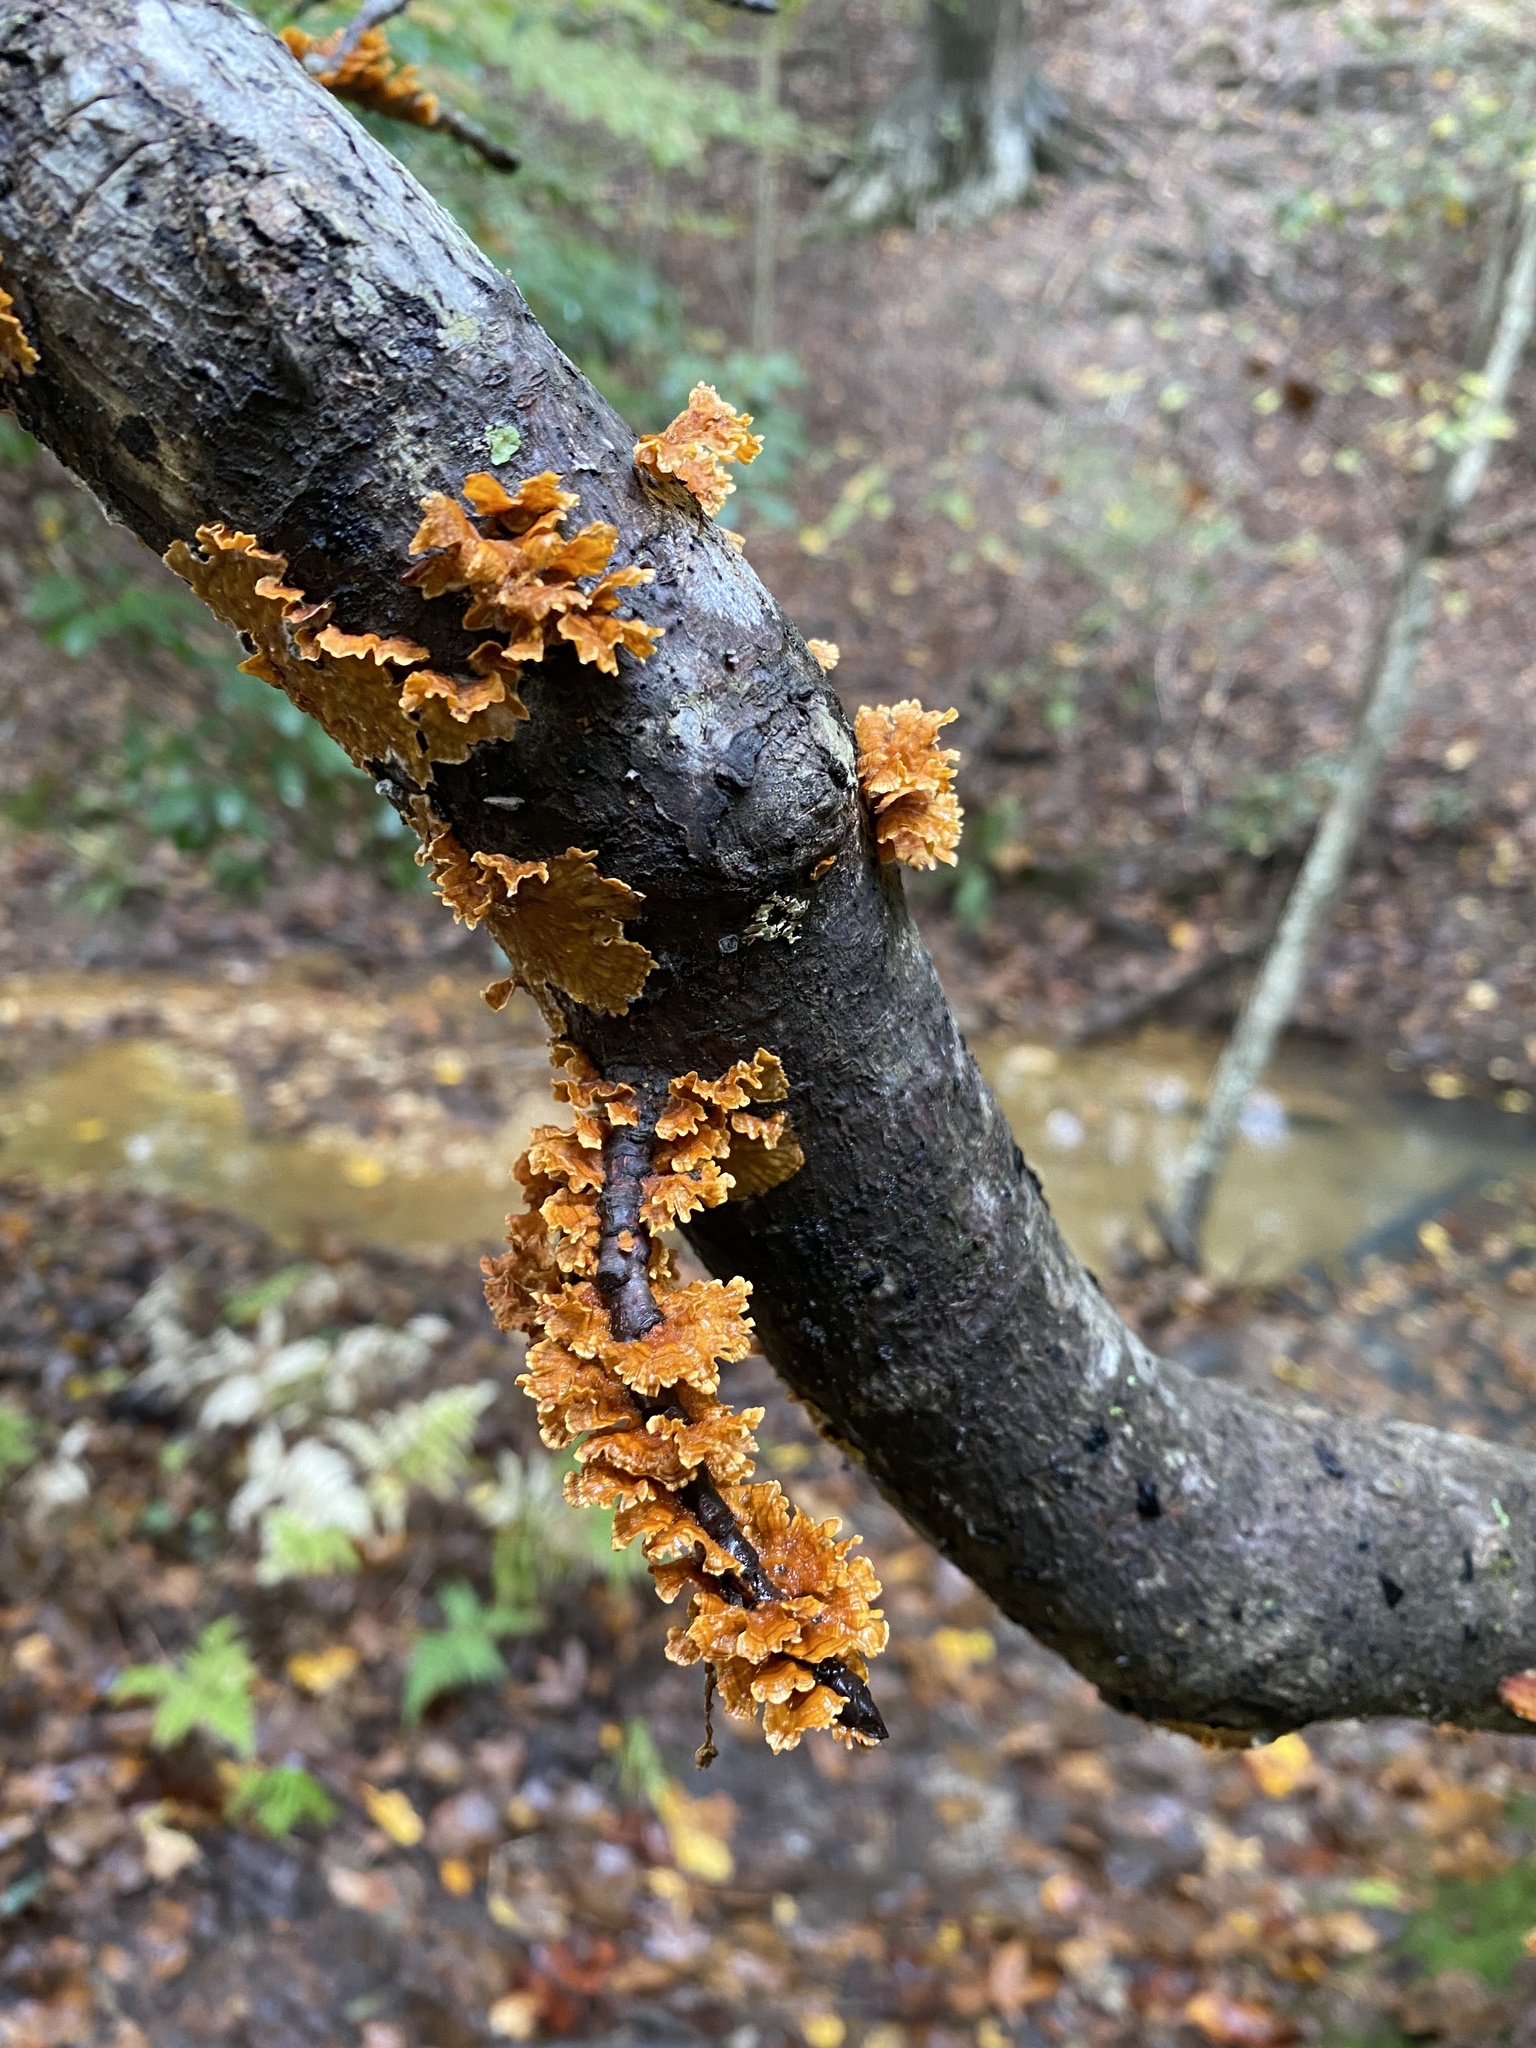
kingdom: Fungi
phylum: Basidiomycota
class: Agaricomycetes
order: Russulales
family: Stereaceae
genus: Stereum
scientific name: Stereum complicatum
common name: Crowded parchment
